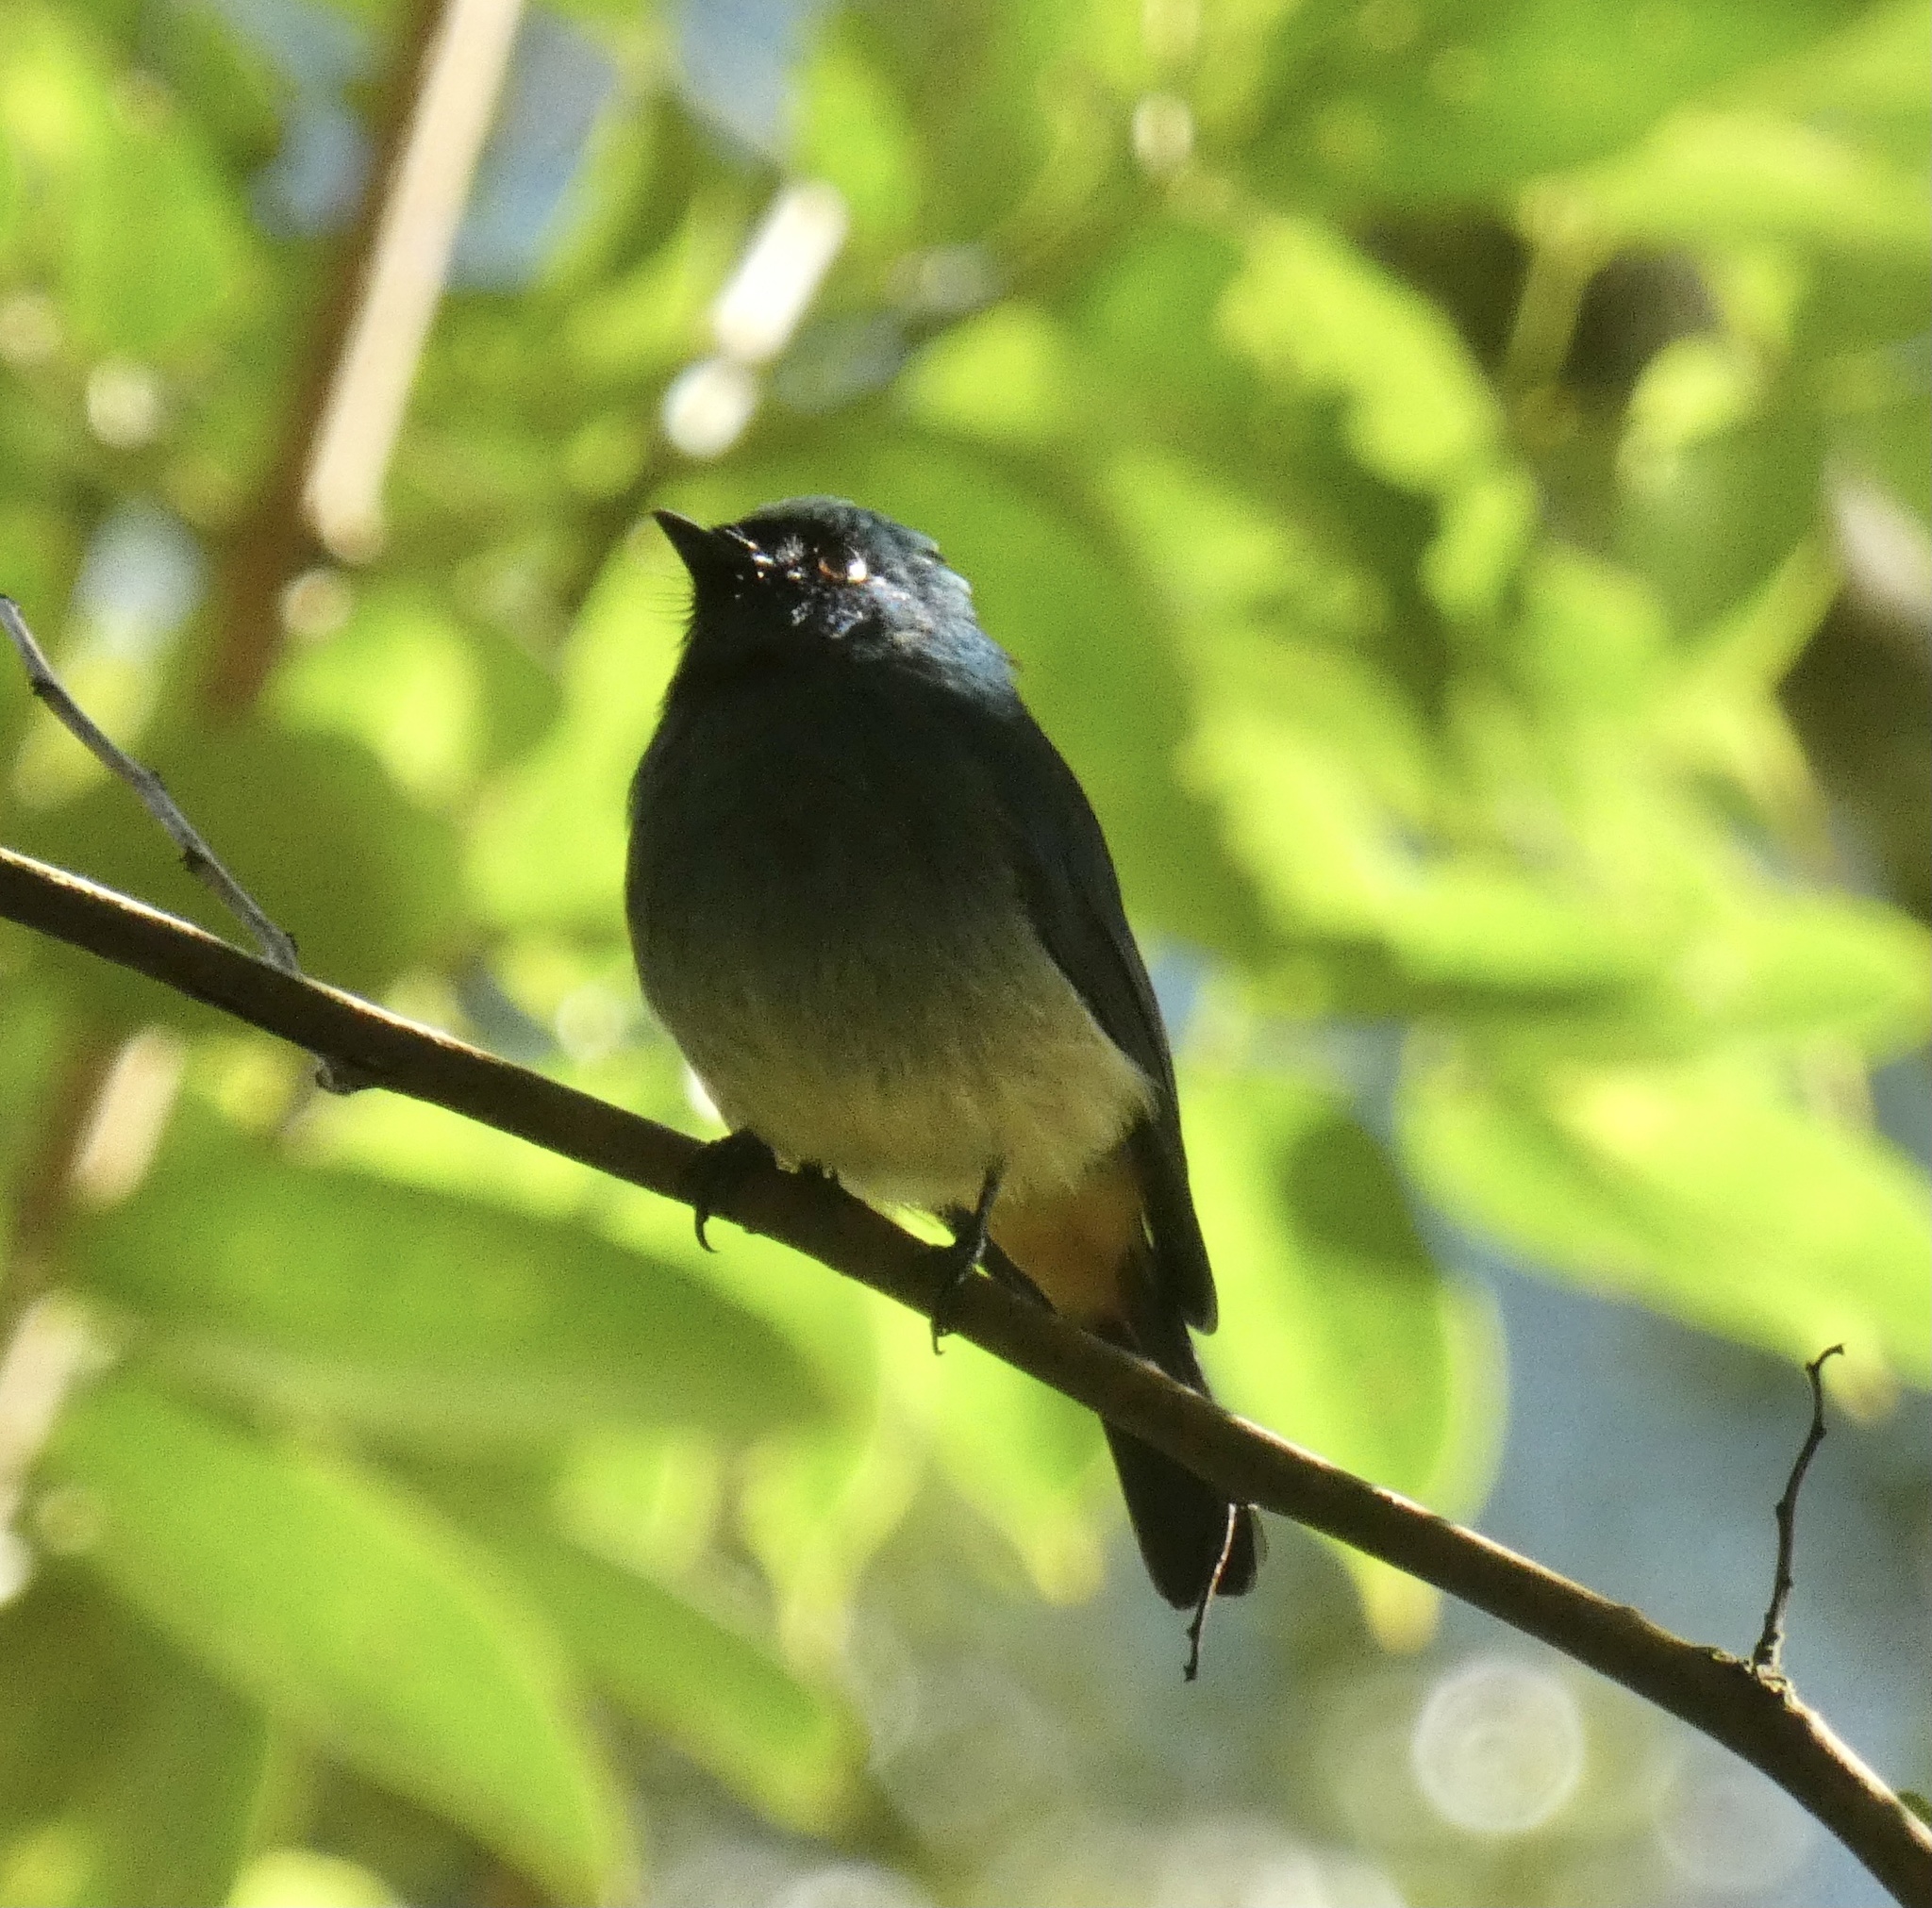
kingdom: Animalia
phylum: Chordata
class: Aves
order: Passeriformes
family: Muscicapidae
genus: Eumyias
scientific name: Eumyias indigo
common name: Indigo flycatcher
